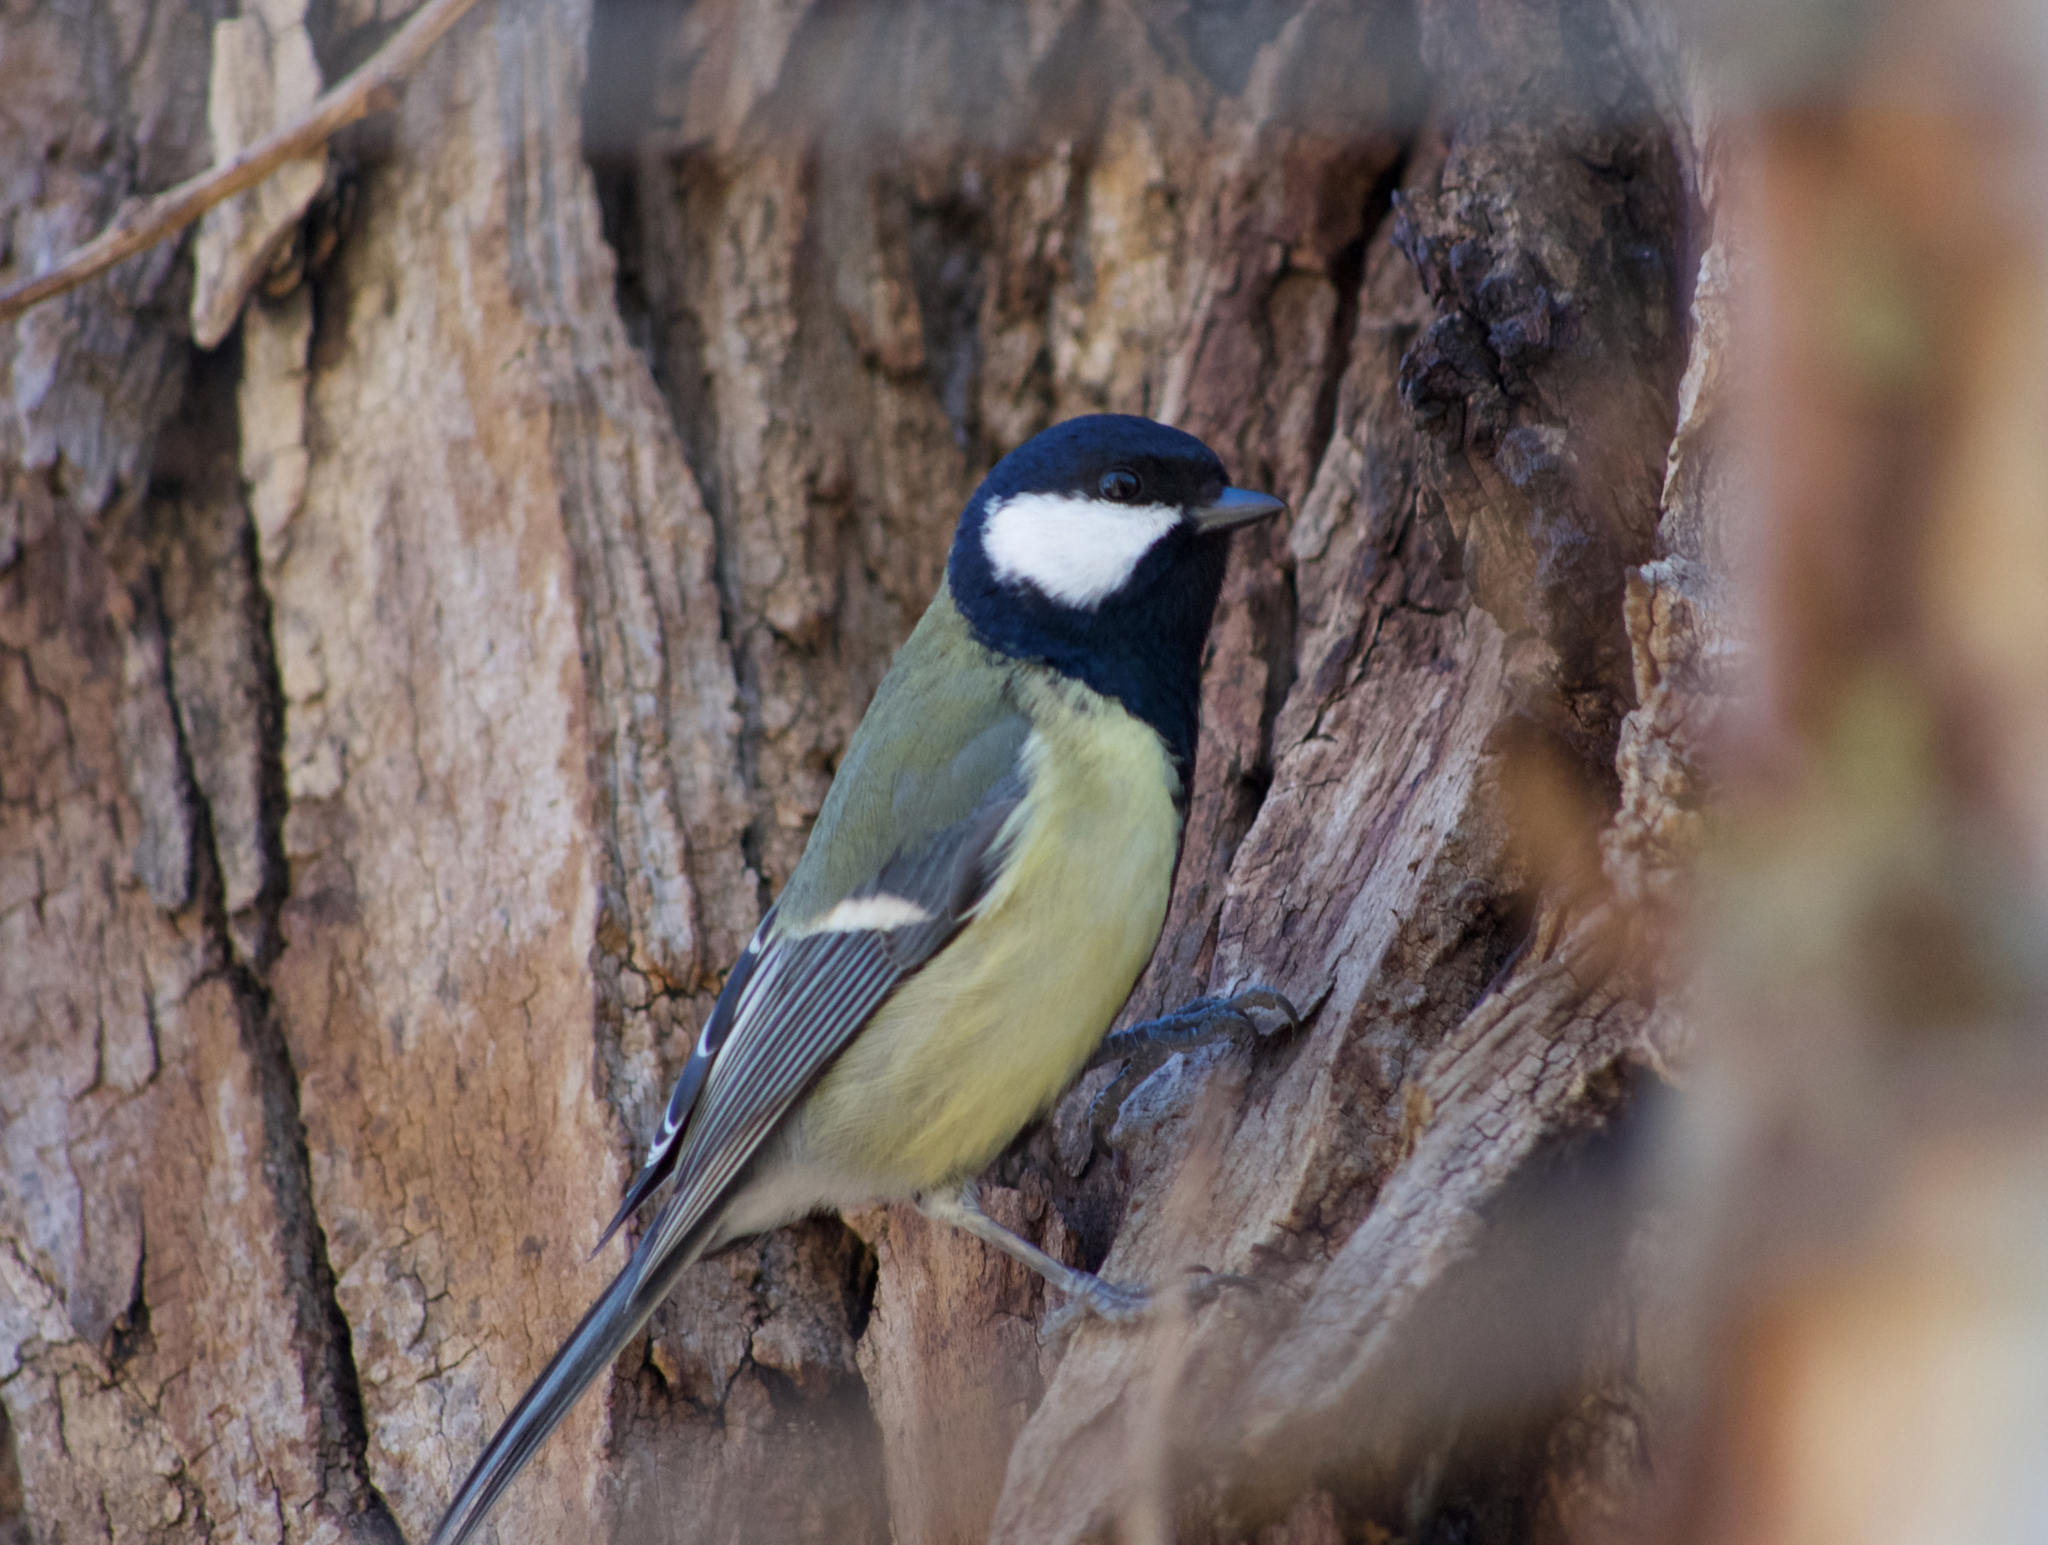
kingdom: Animalia
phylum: Chordata
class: Aves
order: Passeriformes
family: Paridae
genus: Parus
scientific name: Parus major
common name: Great tit
